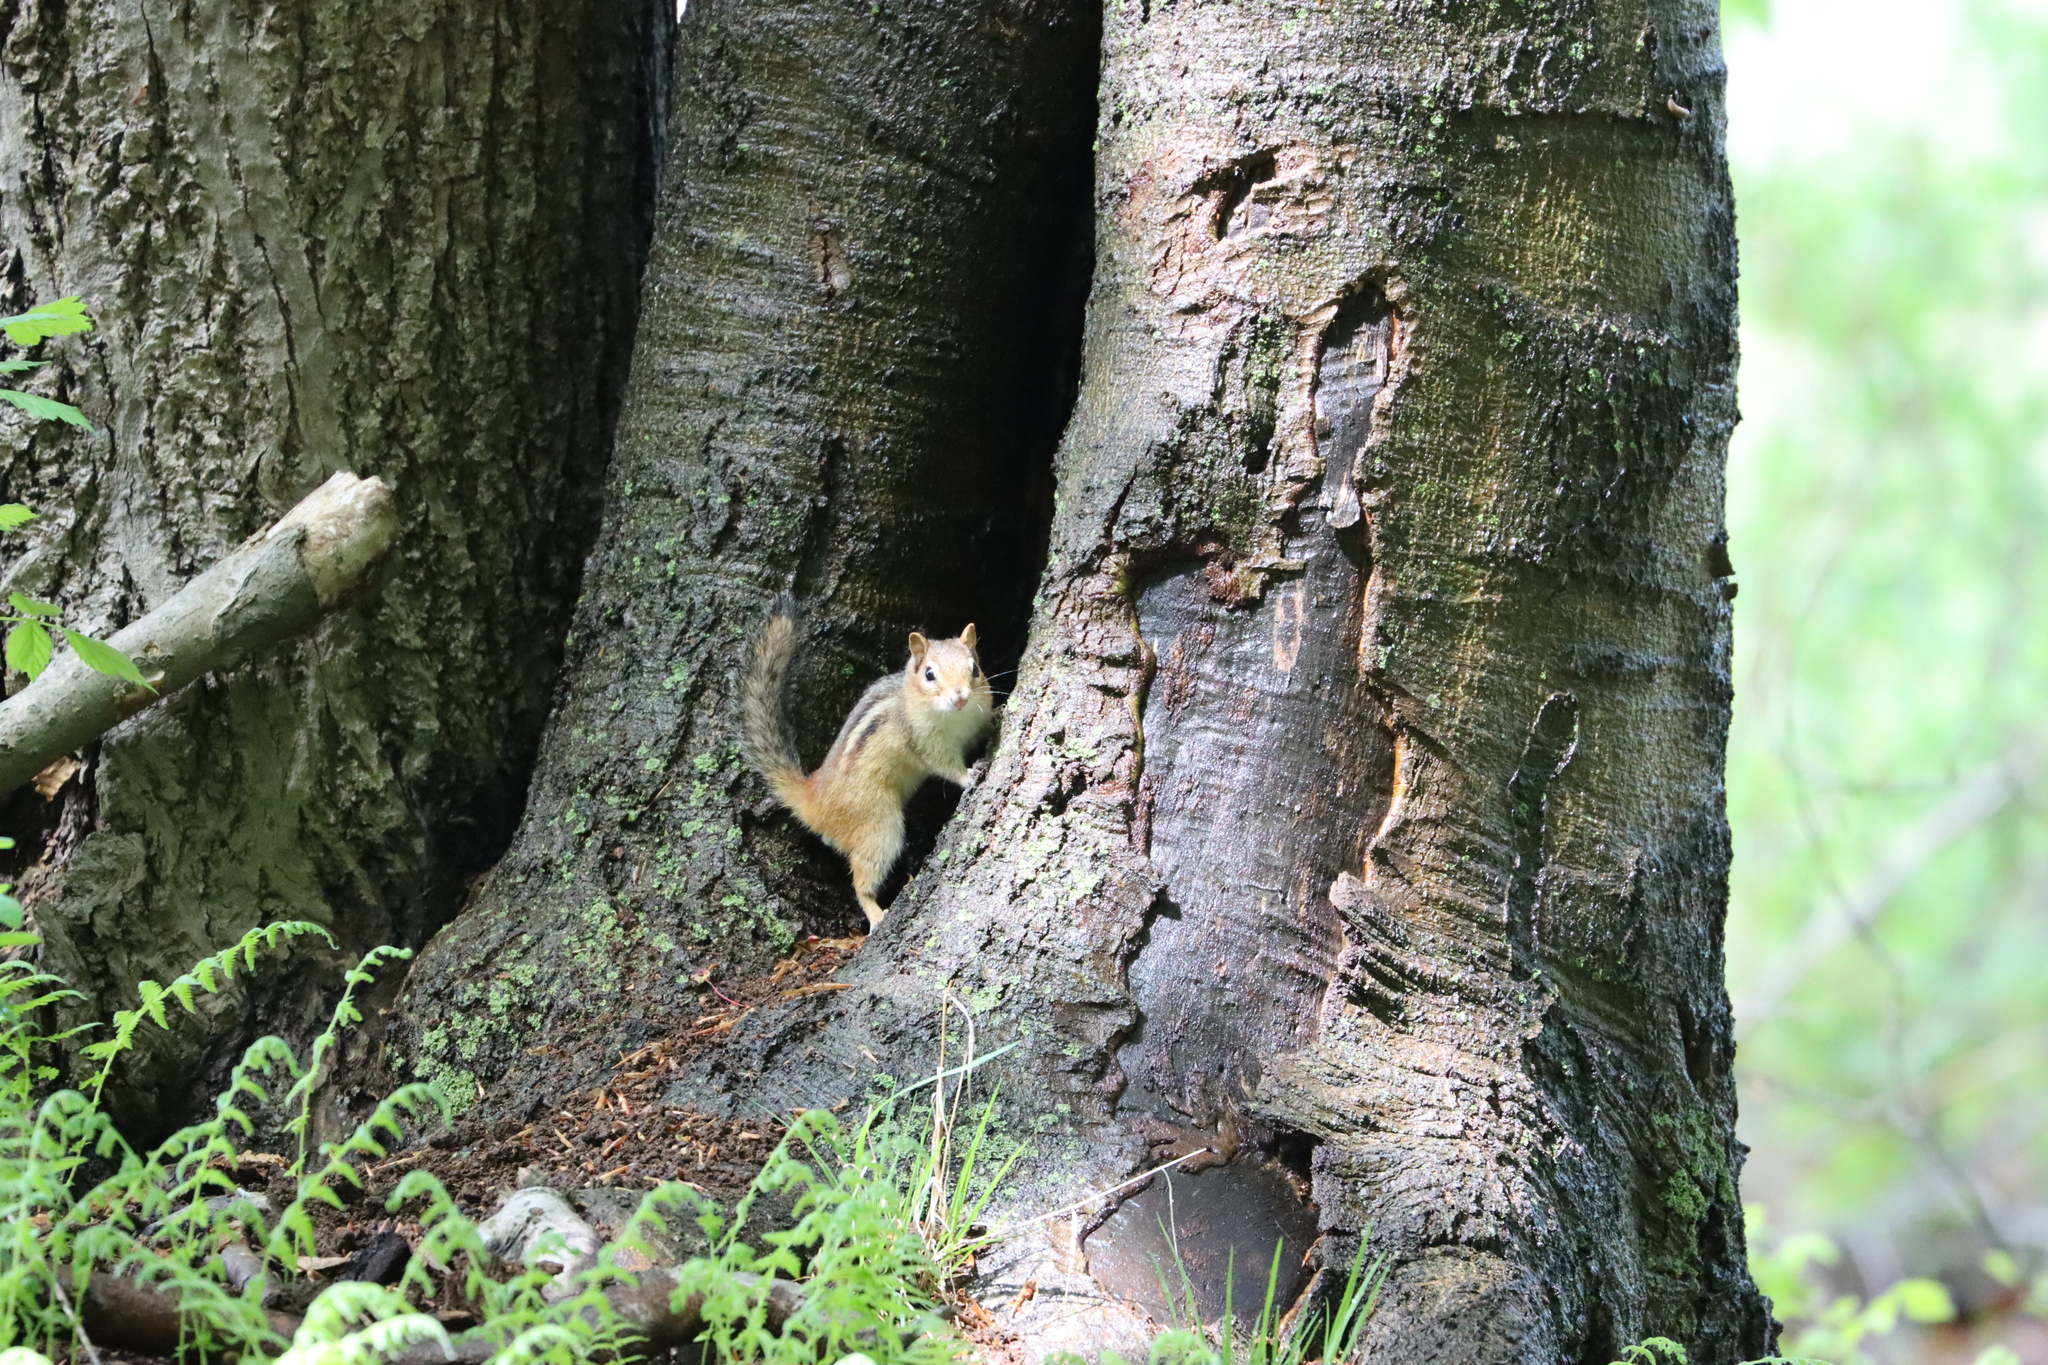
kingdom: Animalia
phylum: Chordata
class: Mammalia
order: Rodentia
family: Sciuridae
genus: Tamias
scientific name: Tamias striatus
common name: Eastern chipmunk
